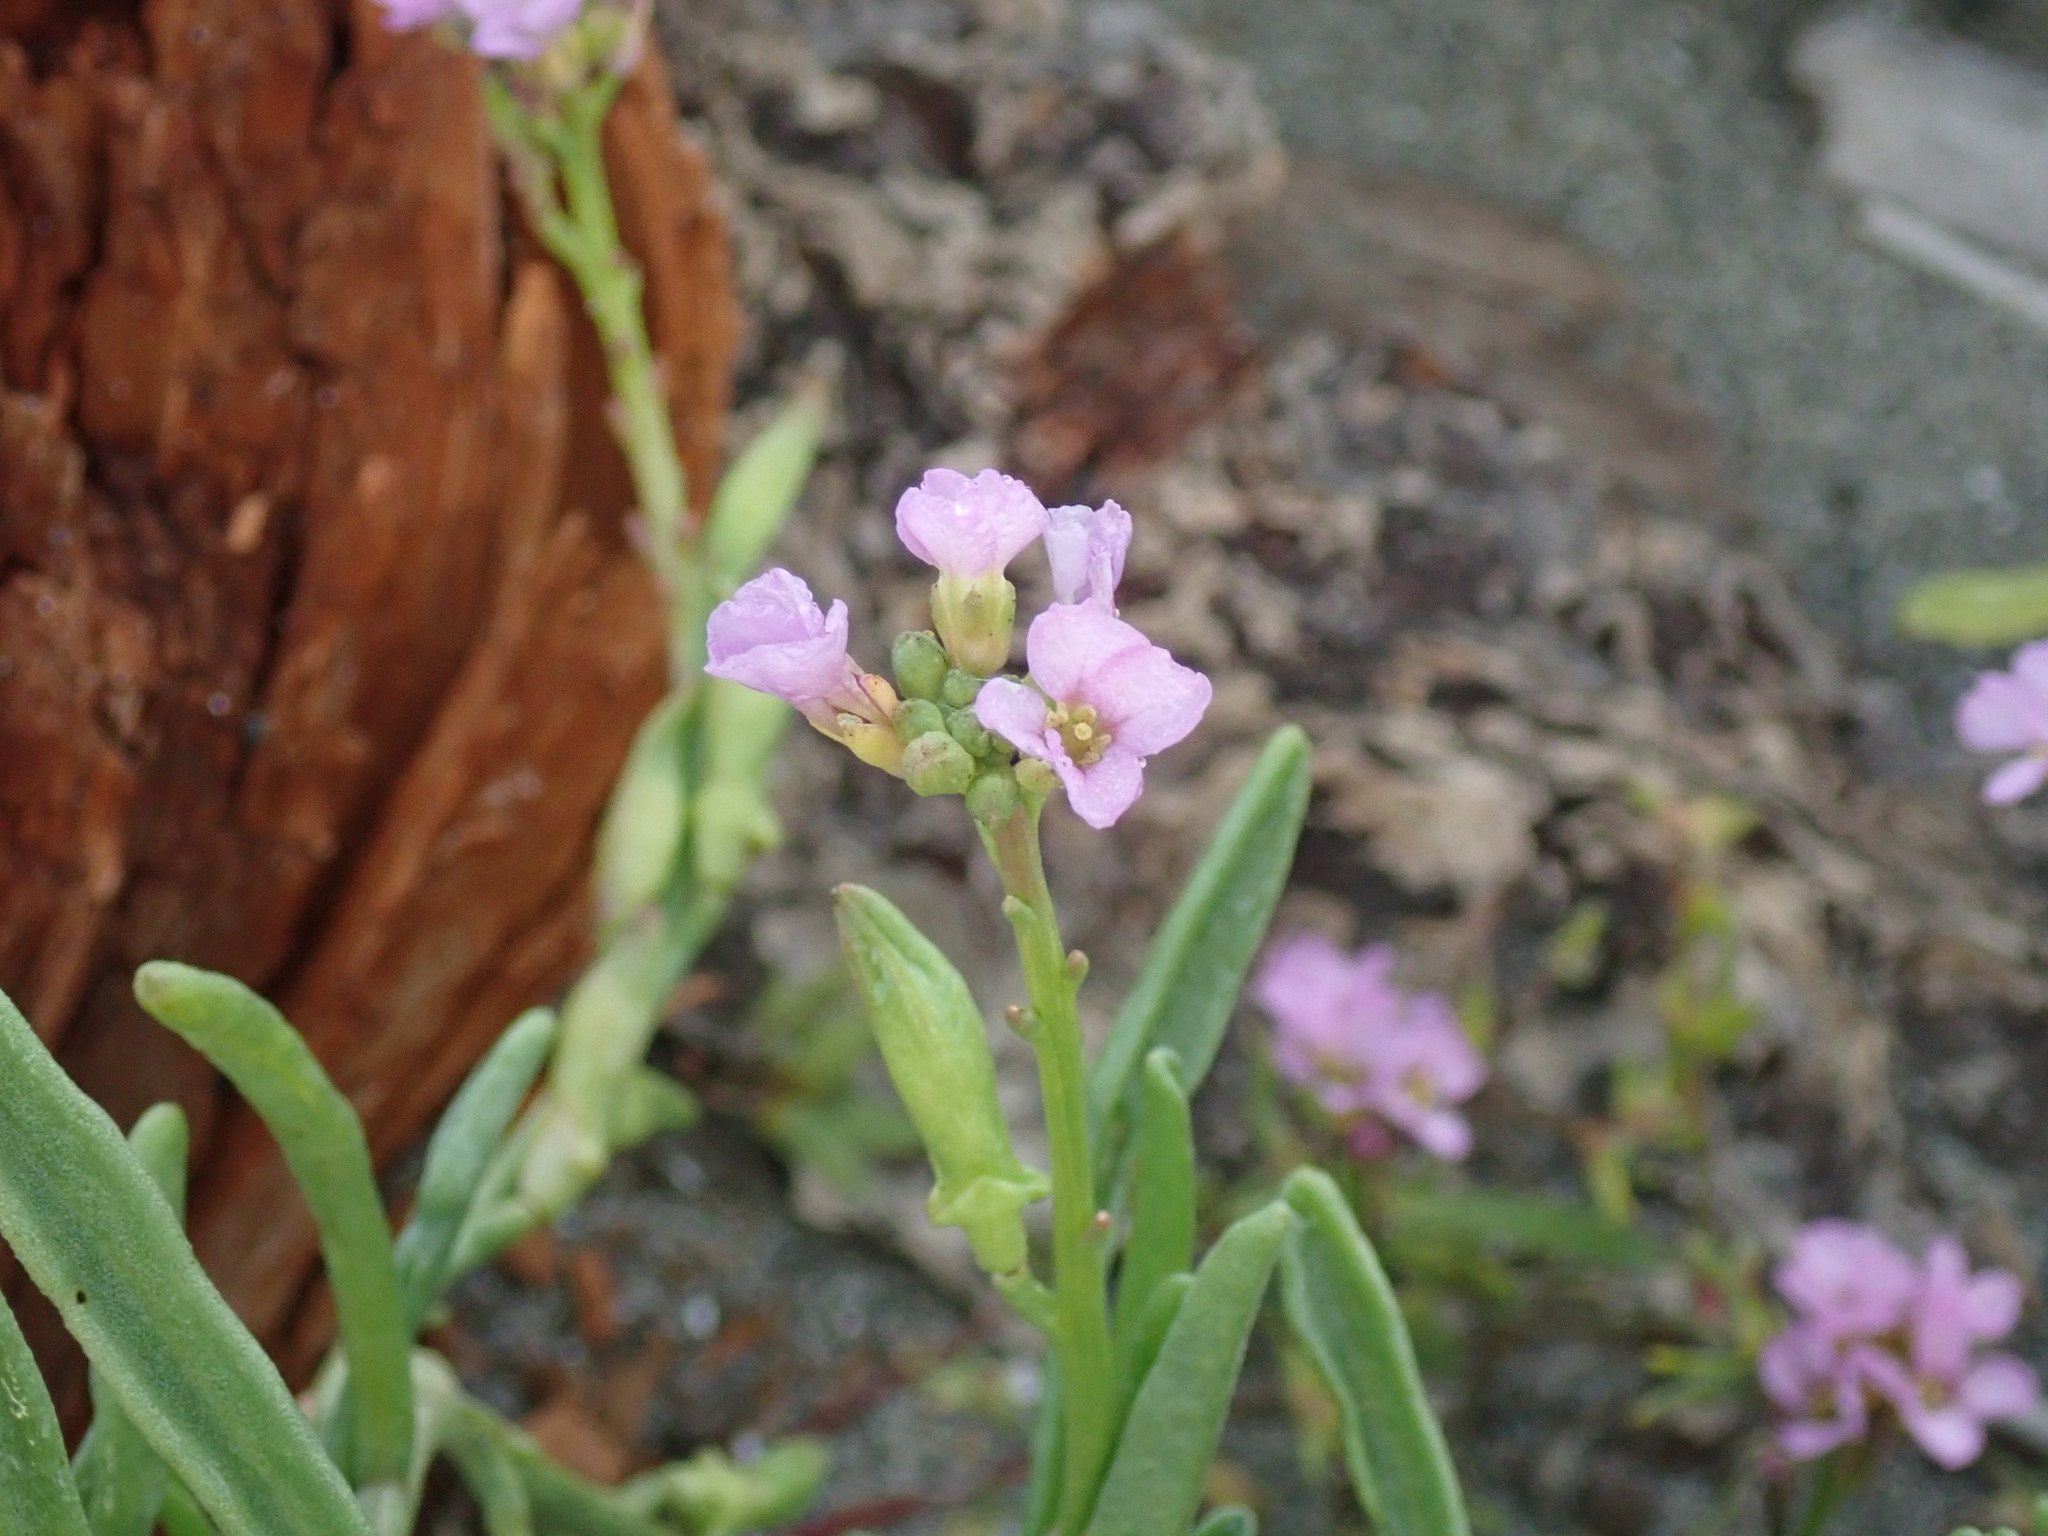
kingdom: Plantae
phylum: Tracheophyta
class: Magnoliopsida
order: Brassicales
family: Brassicaceae
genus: Cakile
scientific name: Cakile edentula
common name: American sea rocket
